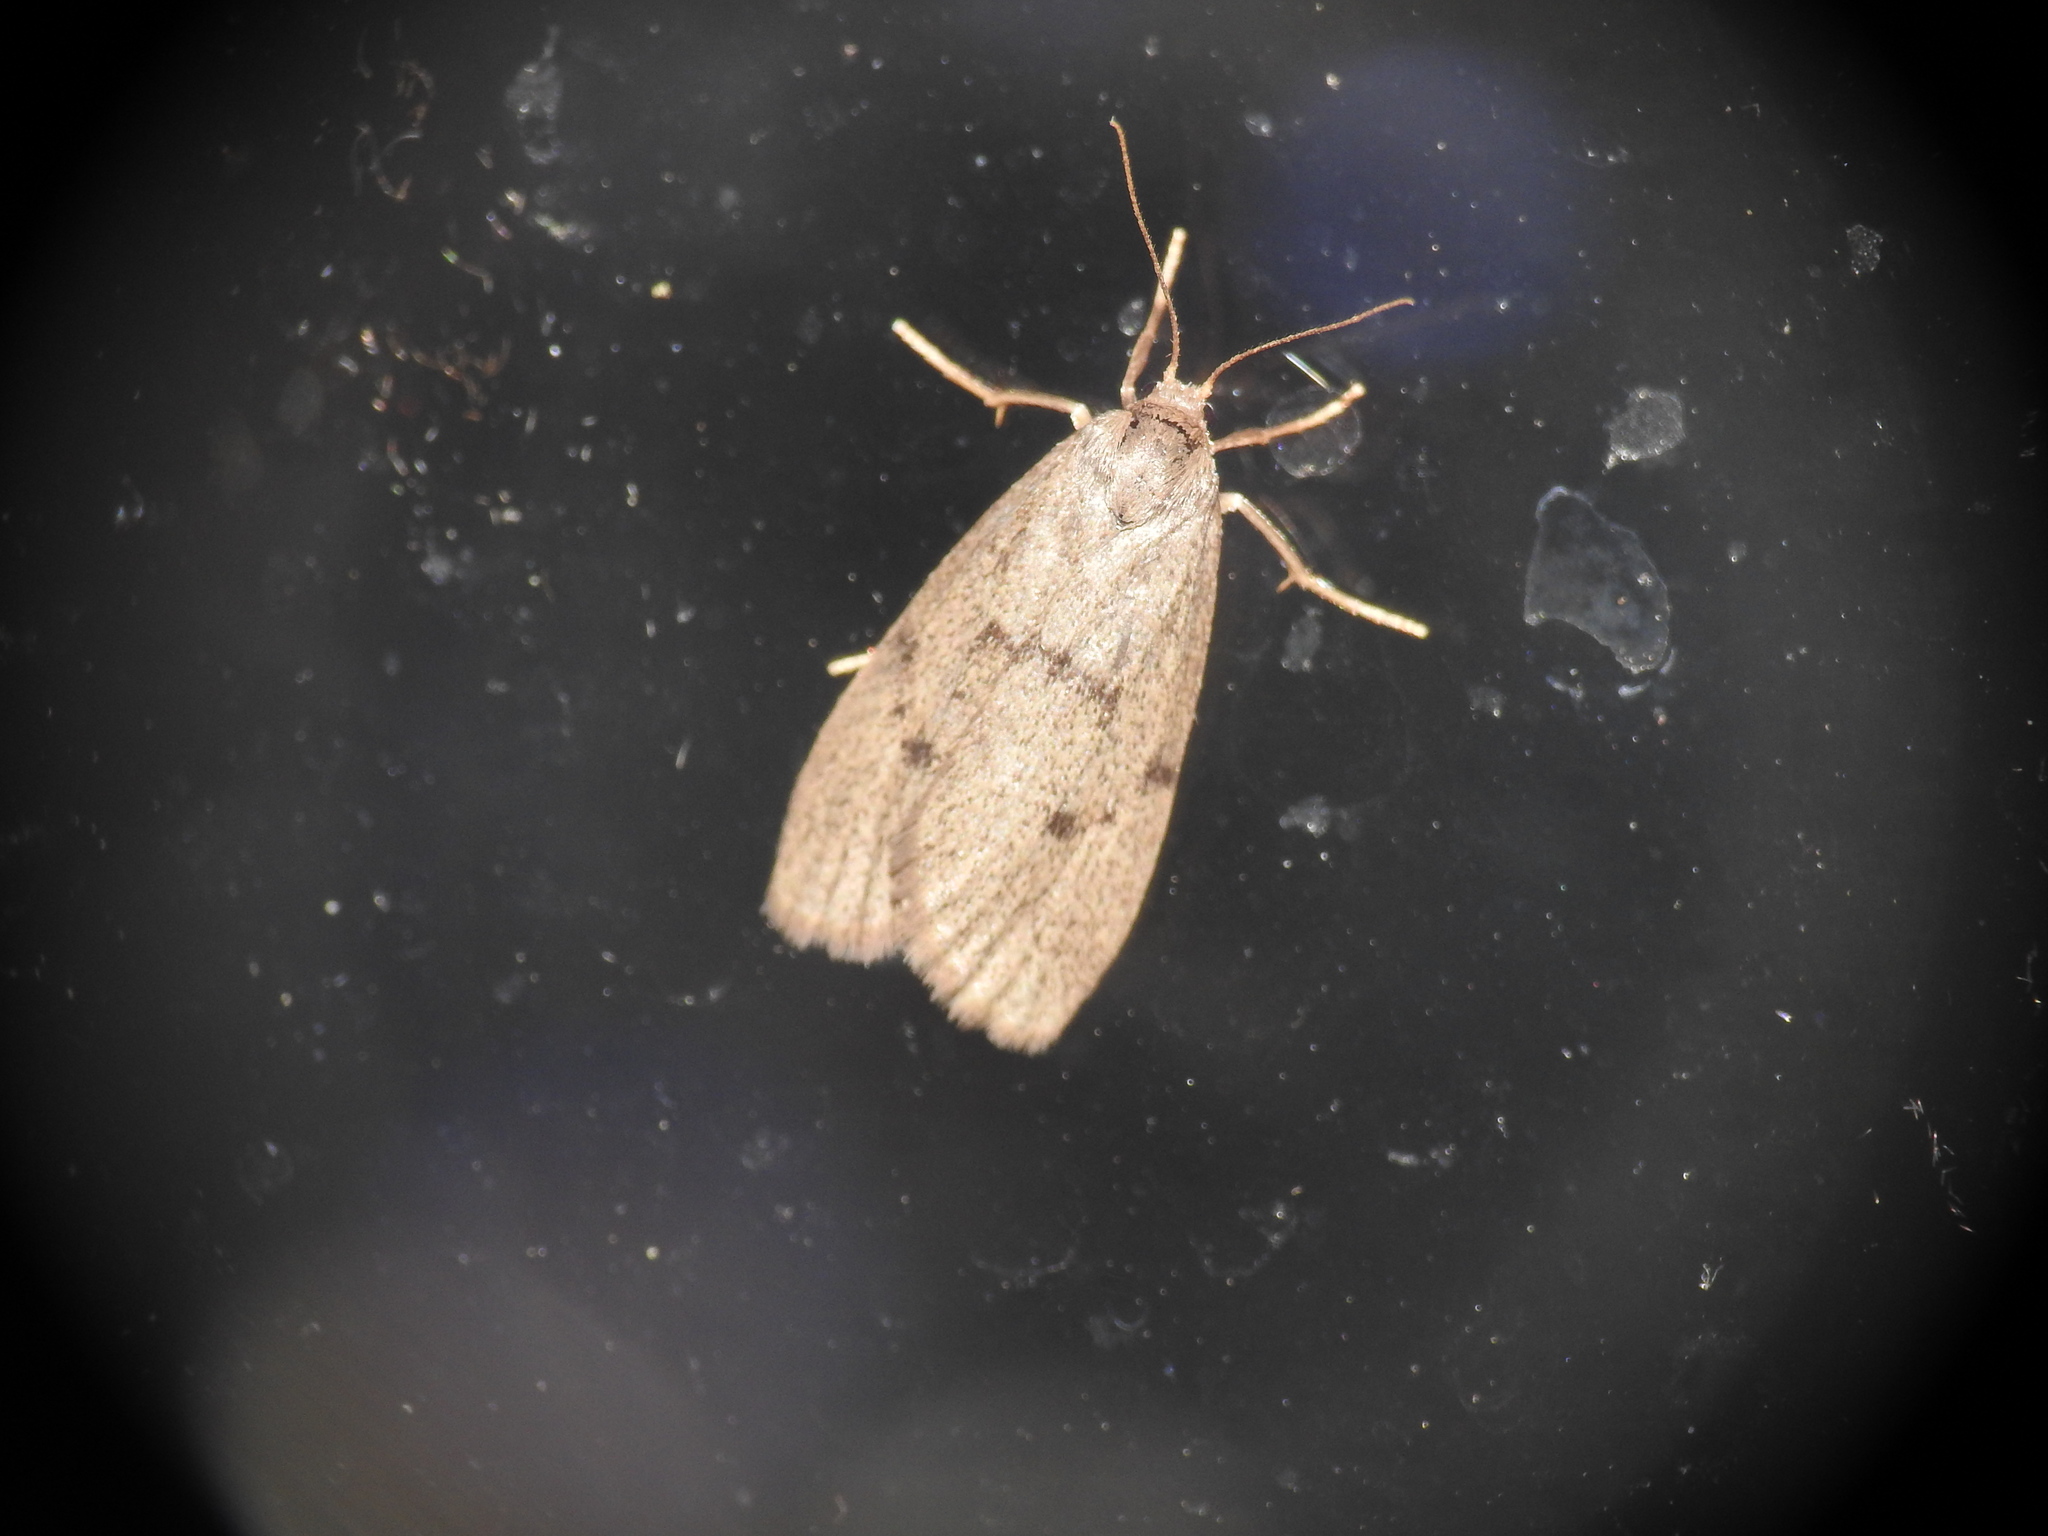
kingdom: Animalia
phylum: Arthropoda
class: Insecta
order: Lepidoptera
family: Erebidae
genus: Apaidia
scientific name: Apaidia mesogona
